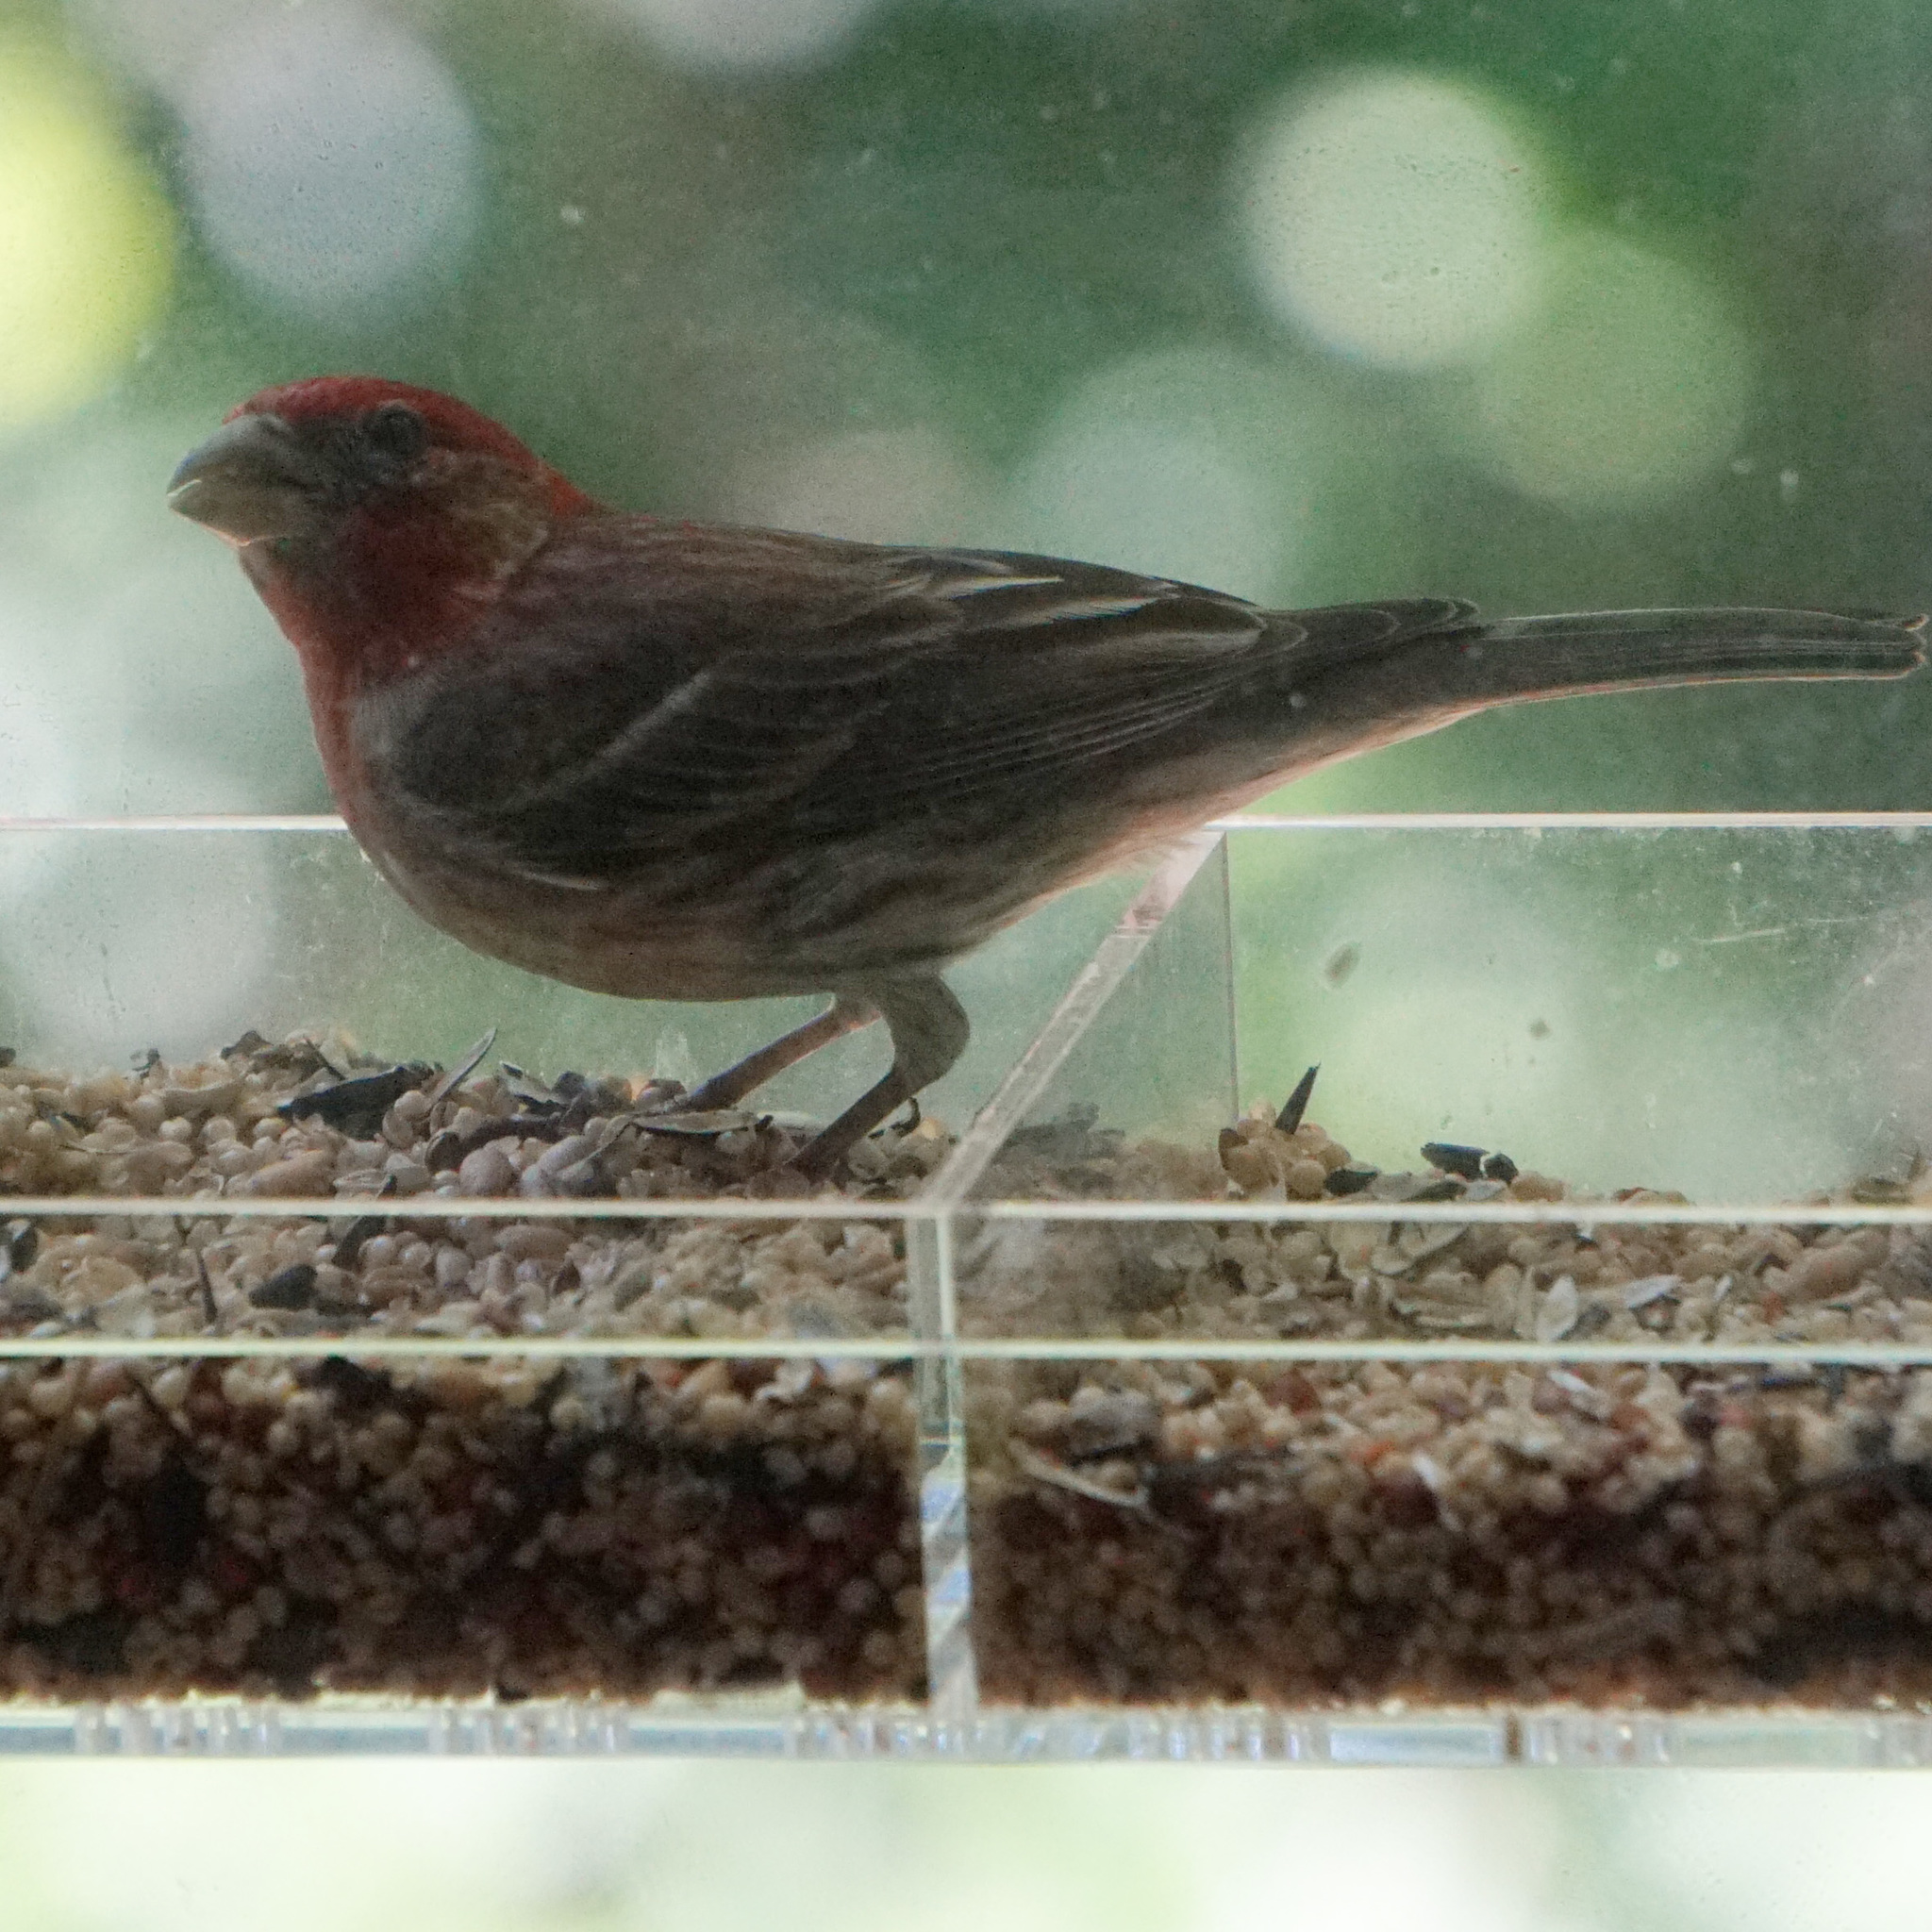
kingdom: Animalia
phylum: Chordata
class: Aves
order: Passeriformes
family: Fringillidae
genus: Haemorhous
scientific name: Haemorhous mexicanus
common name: House finch
